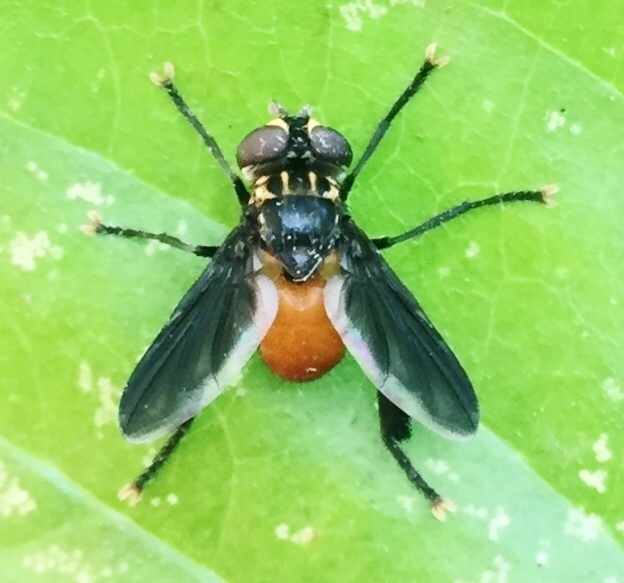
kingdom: Animalia
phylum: Arthropoda
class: Insecta
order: Diptera
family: Tachinidae
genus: Trichopoda
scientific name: Trichopoda pennipes
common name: Tachinid fly
